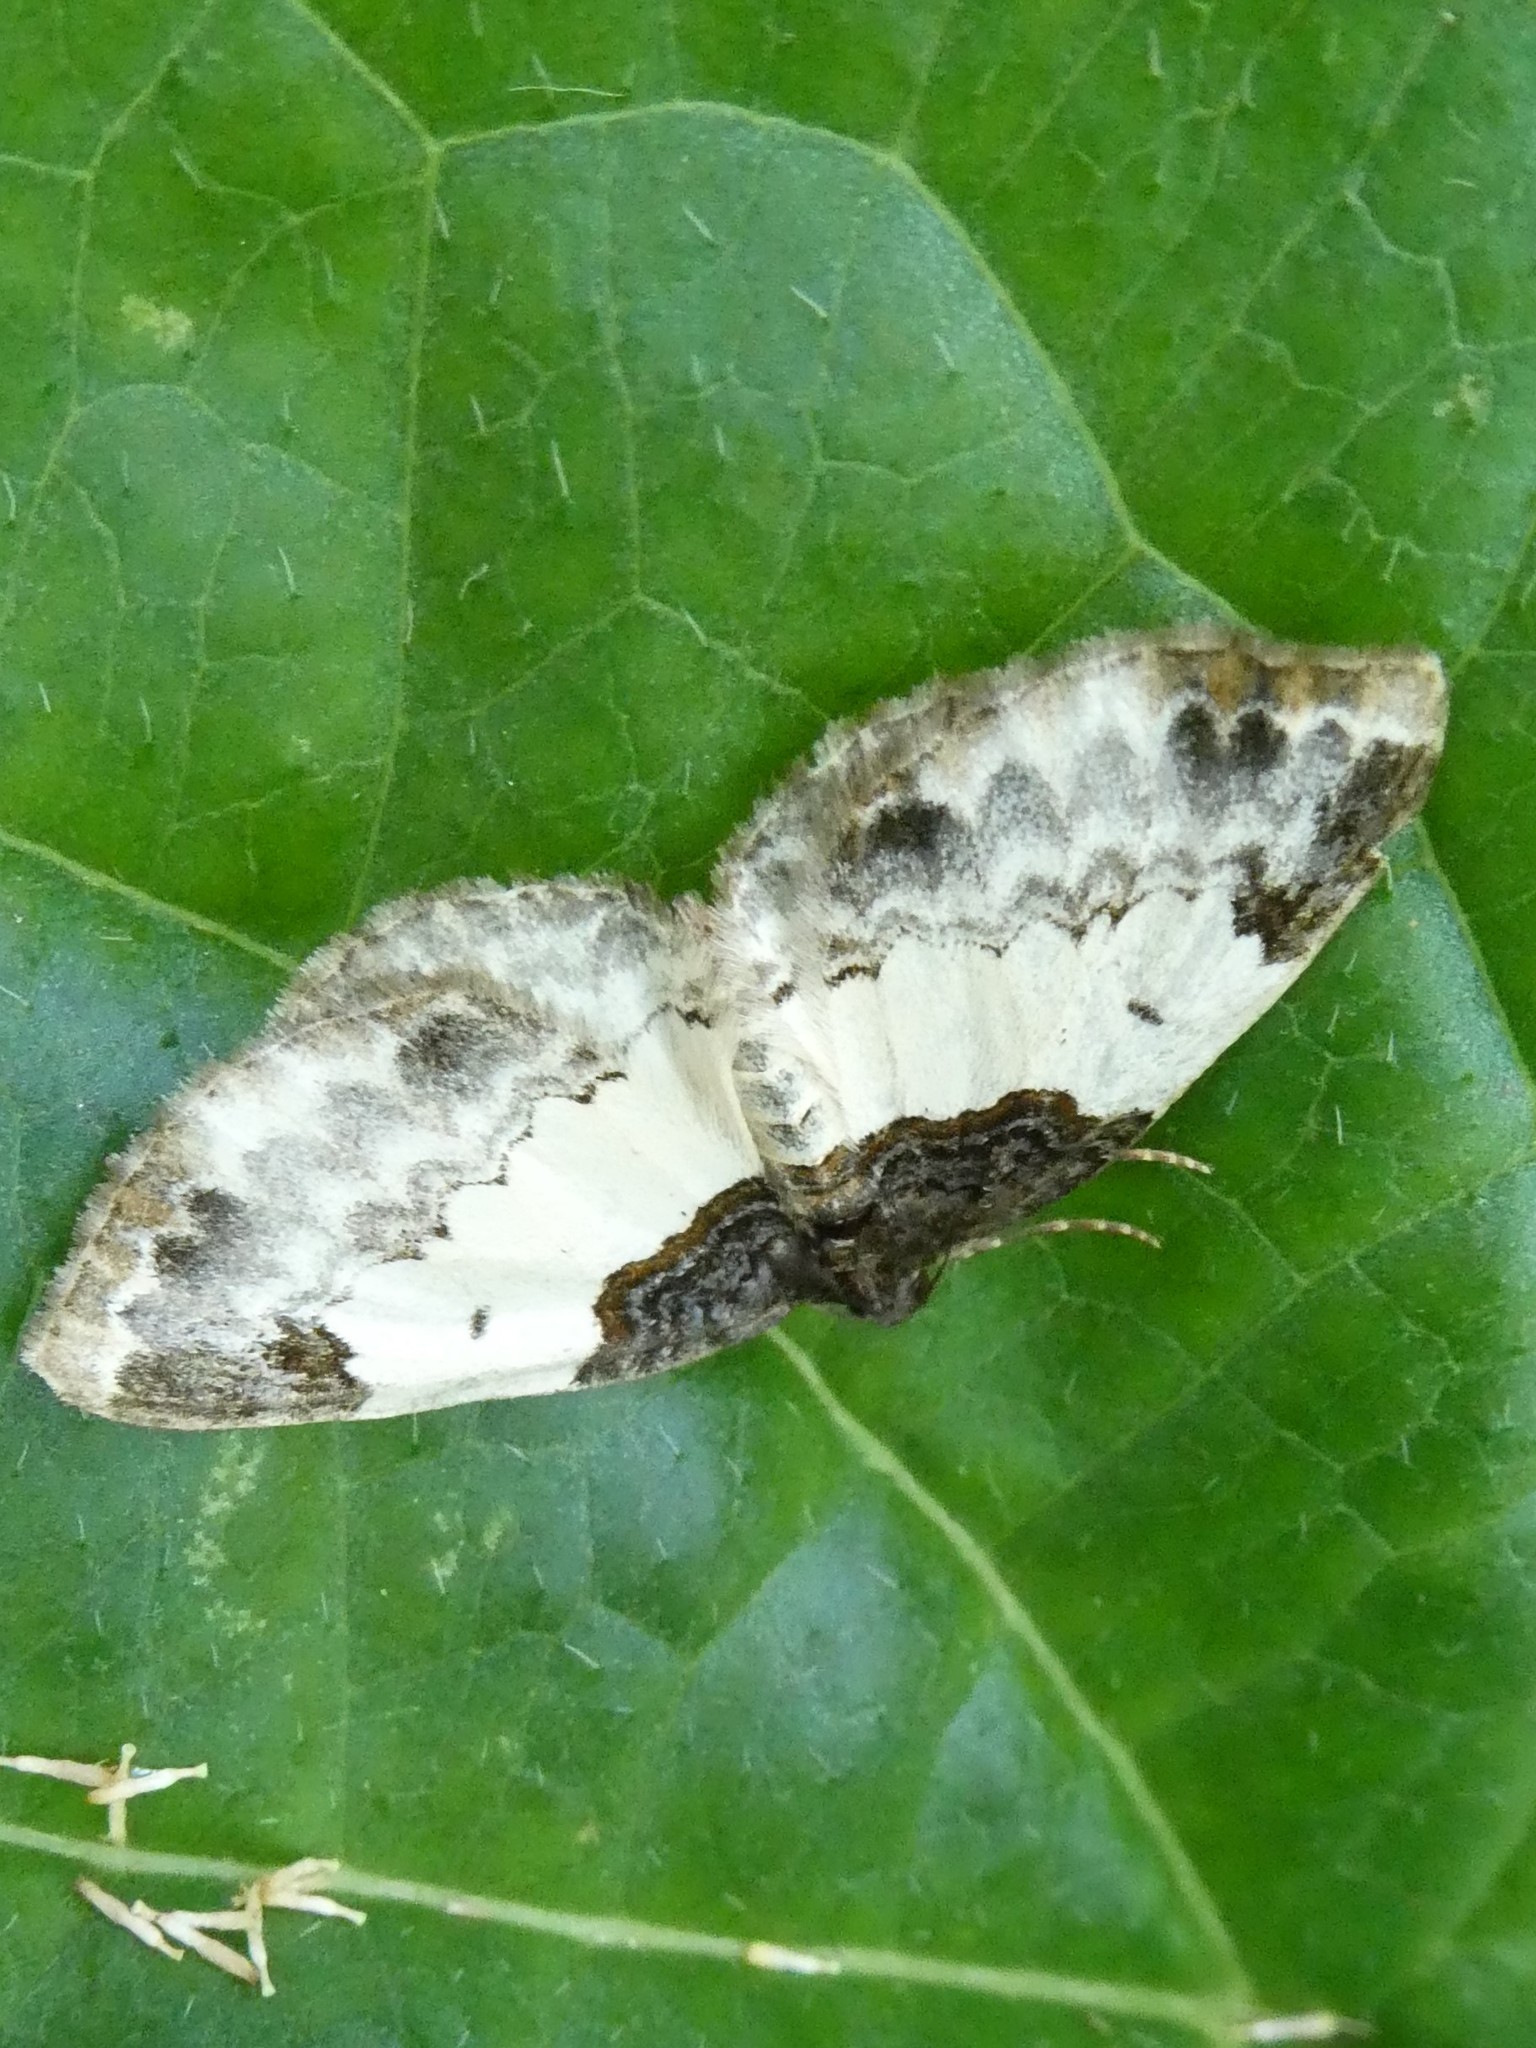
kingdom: Animalia
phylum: Arthropoda
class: Insecta
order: Lepidoptera
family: Geometridae
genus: Mesoleuca
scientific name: Mesoleuca ruficillata
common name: White-ribboned carpet moth
